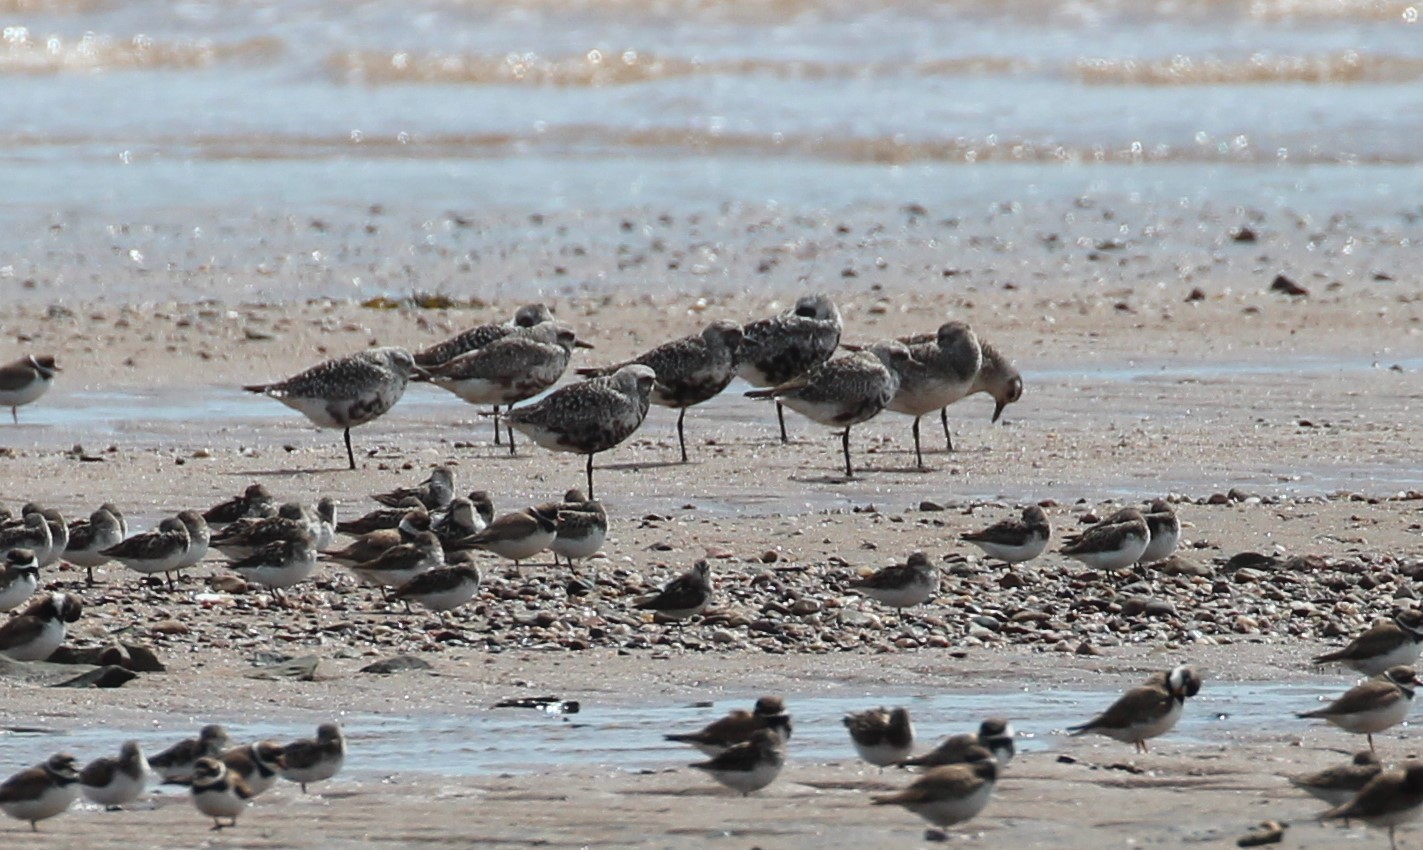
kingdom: Animalia
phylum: Chordata
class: Aves
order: Charadriiformes
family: Charadriidae
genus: Pluvialis
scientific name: Pluvialis squatarola
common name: Grey plover
